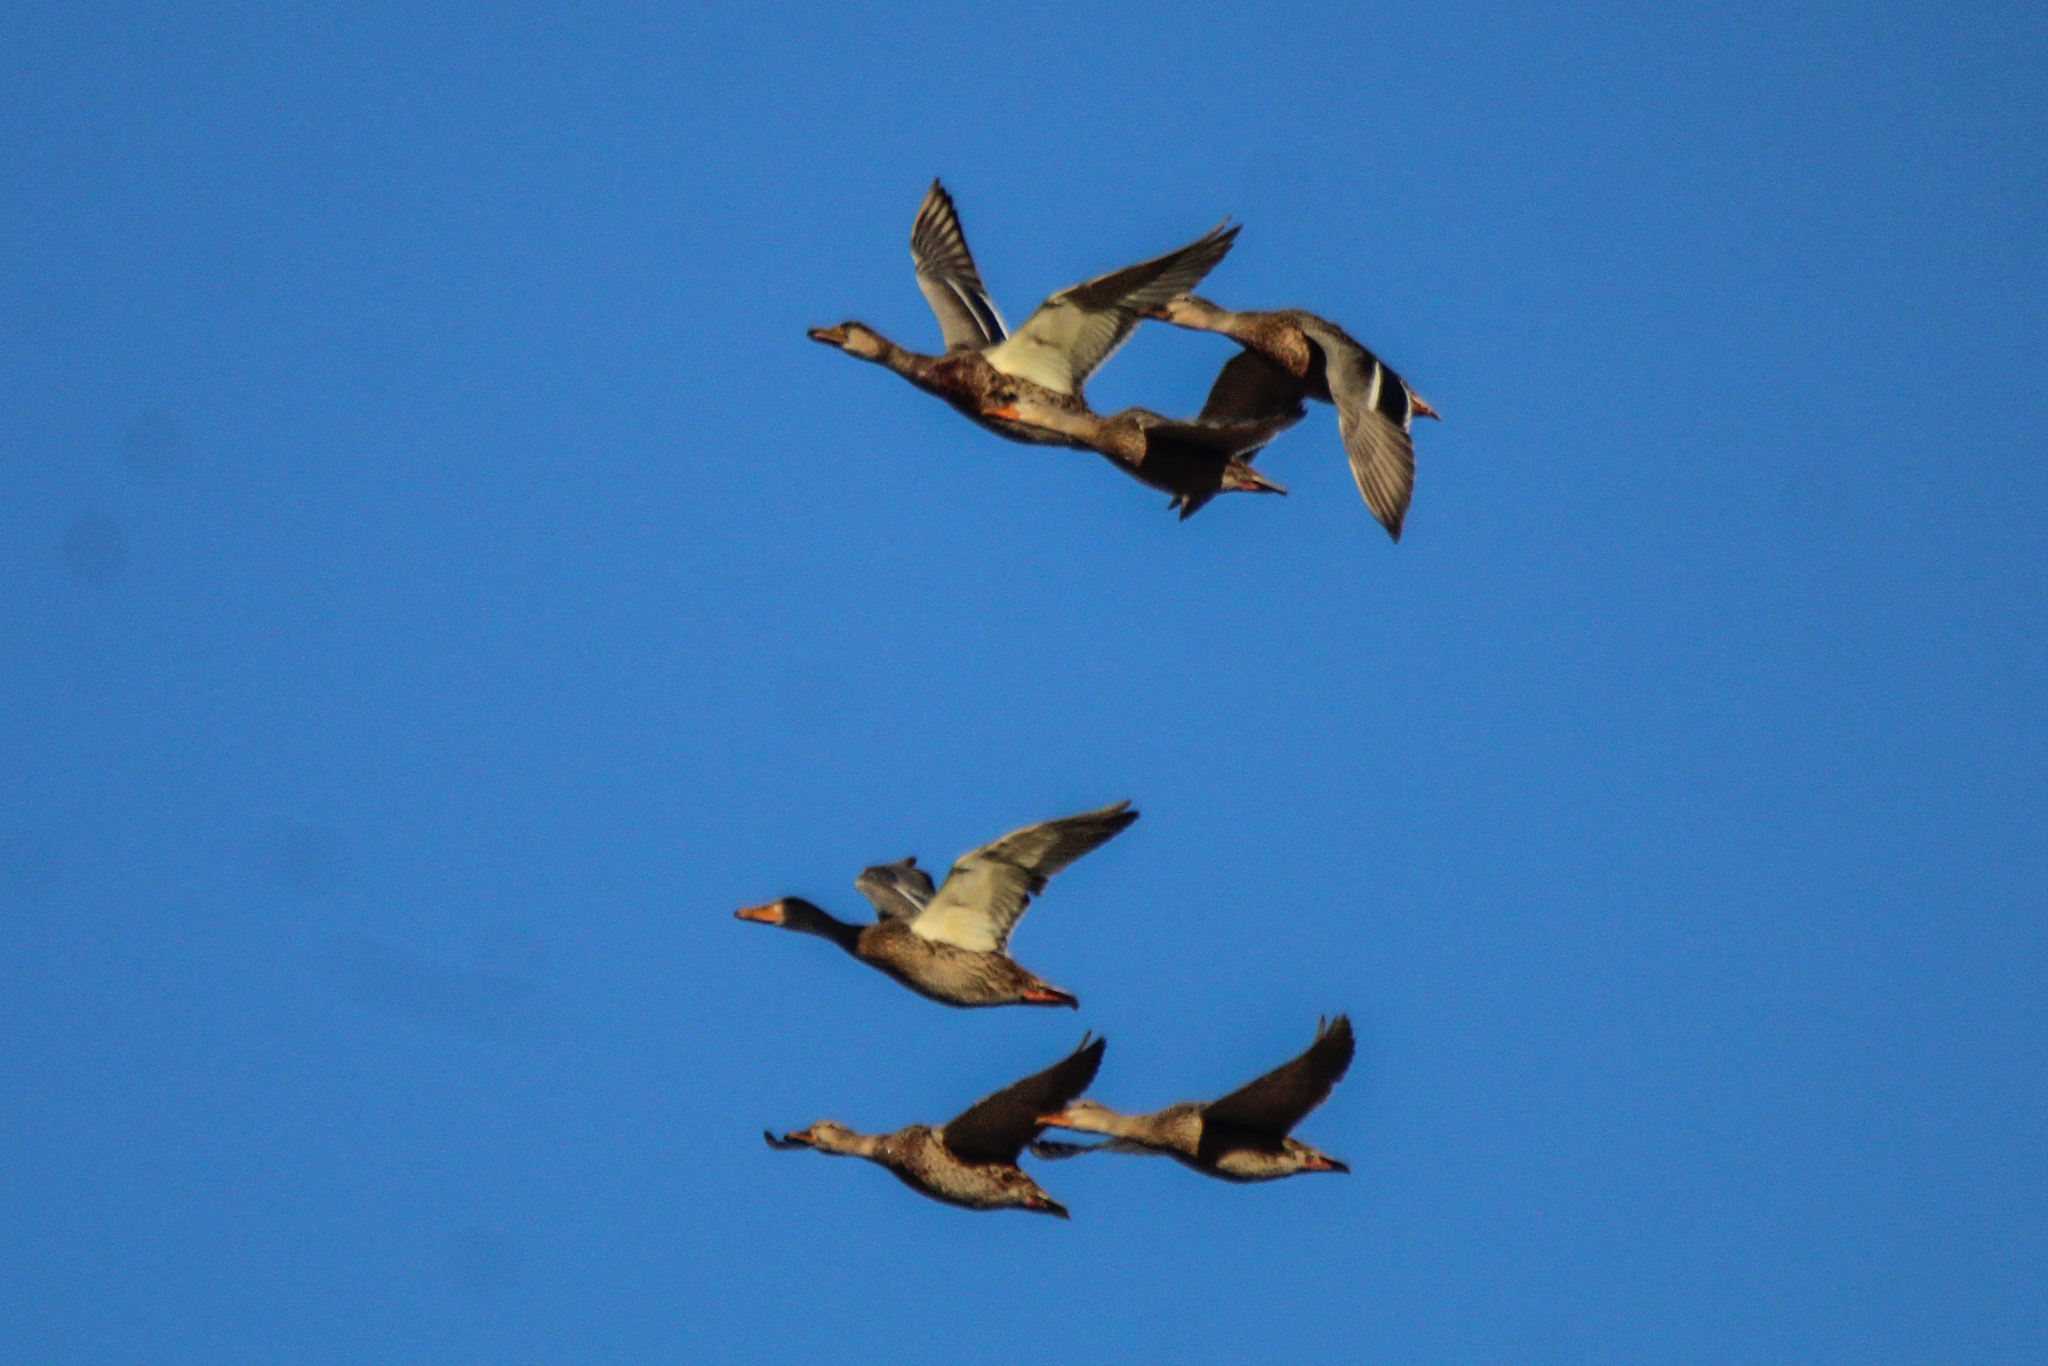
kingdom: Animalia
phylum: Chordata
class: Aves
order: Anseriformes
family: Anatidae
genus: Anas
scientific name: Anas platyrhynchos
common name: Mallard
